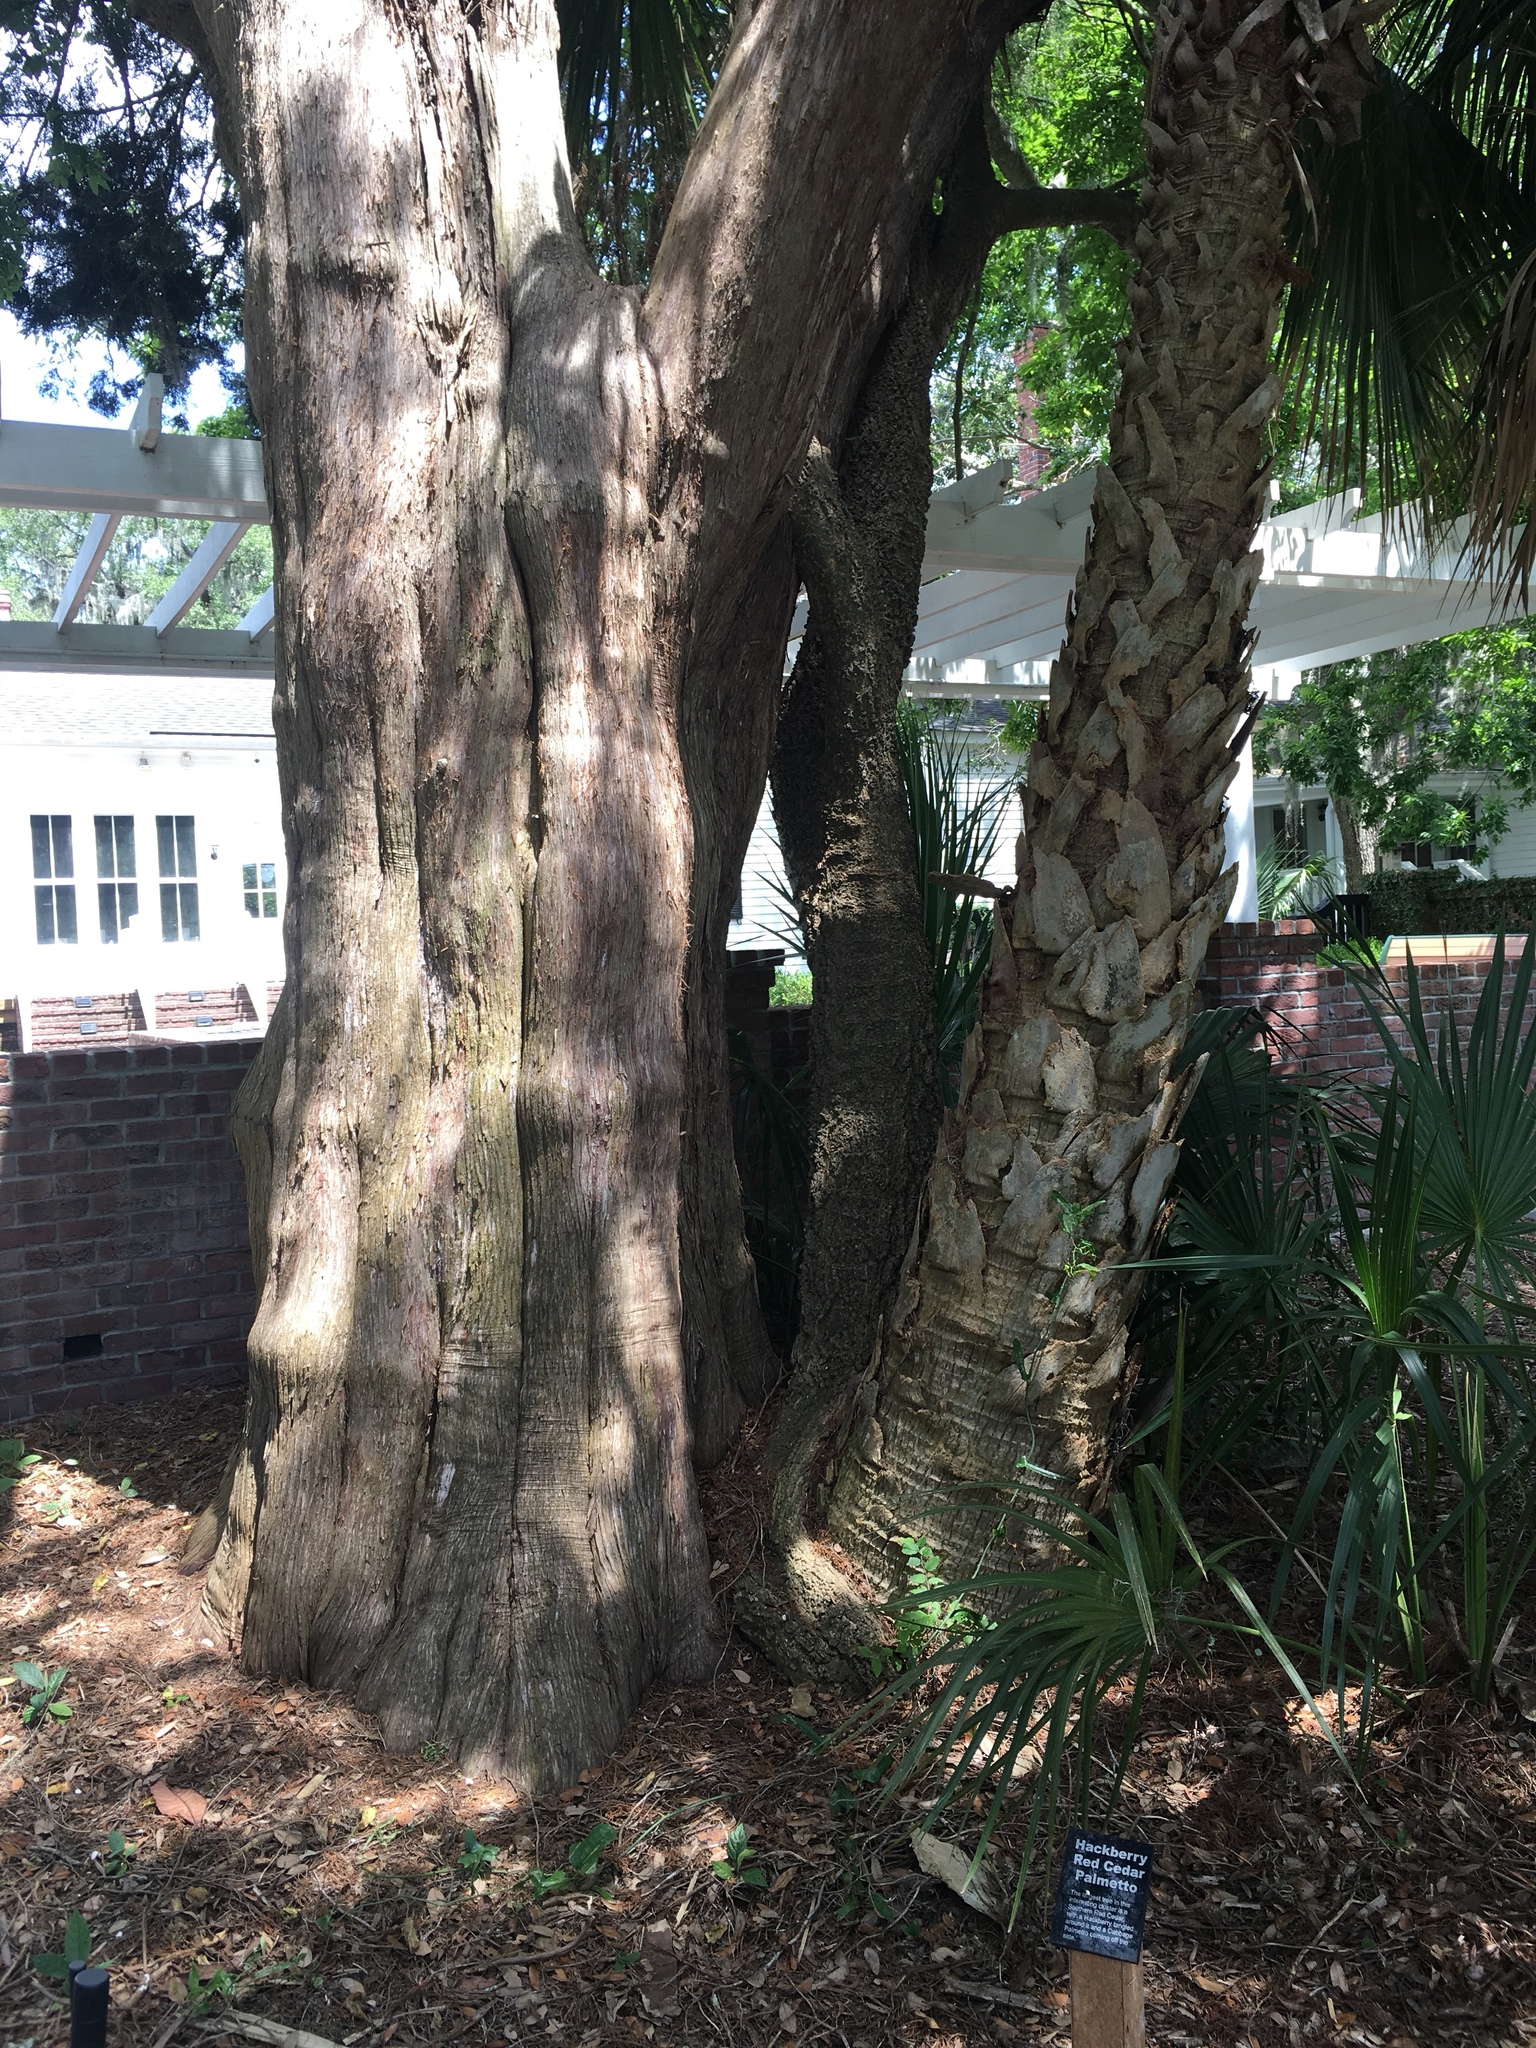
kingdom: Plantae
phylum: Tracheophyta
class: Pinopsida
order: Pinales
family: Cupressaceae
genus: Juniperus
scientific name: Juniperus virginiana
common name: Red juniper
